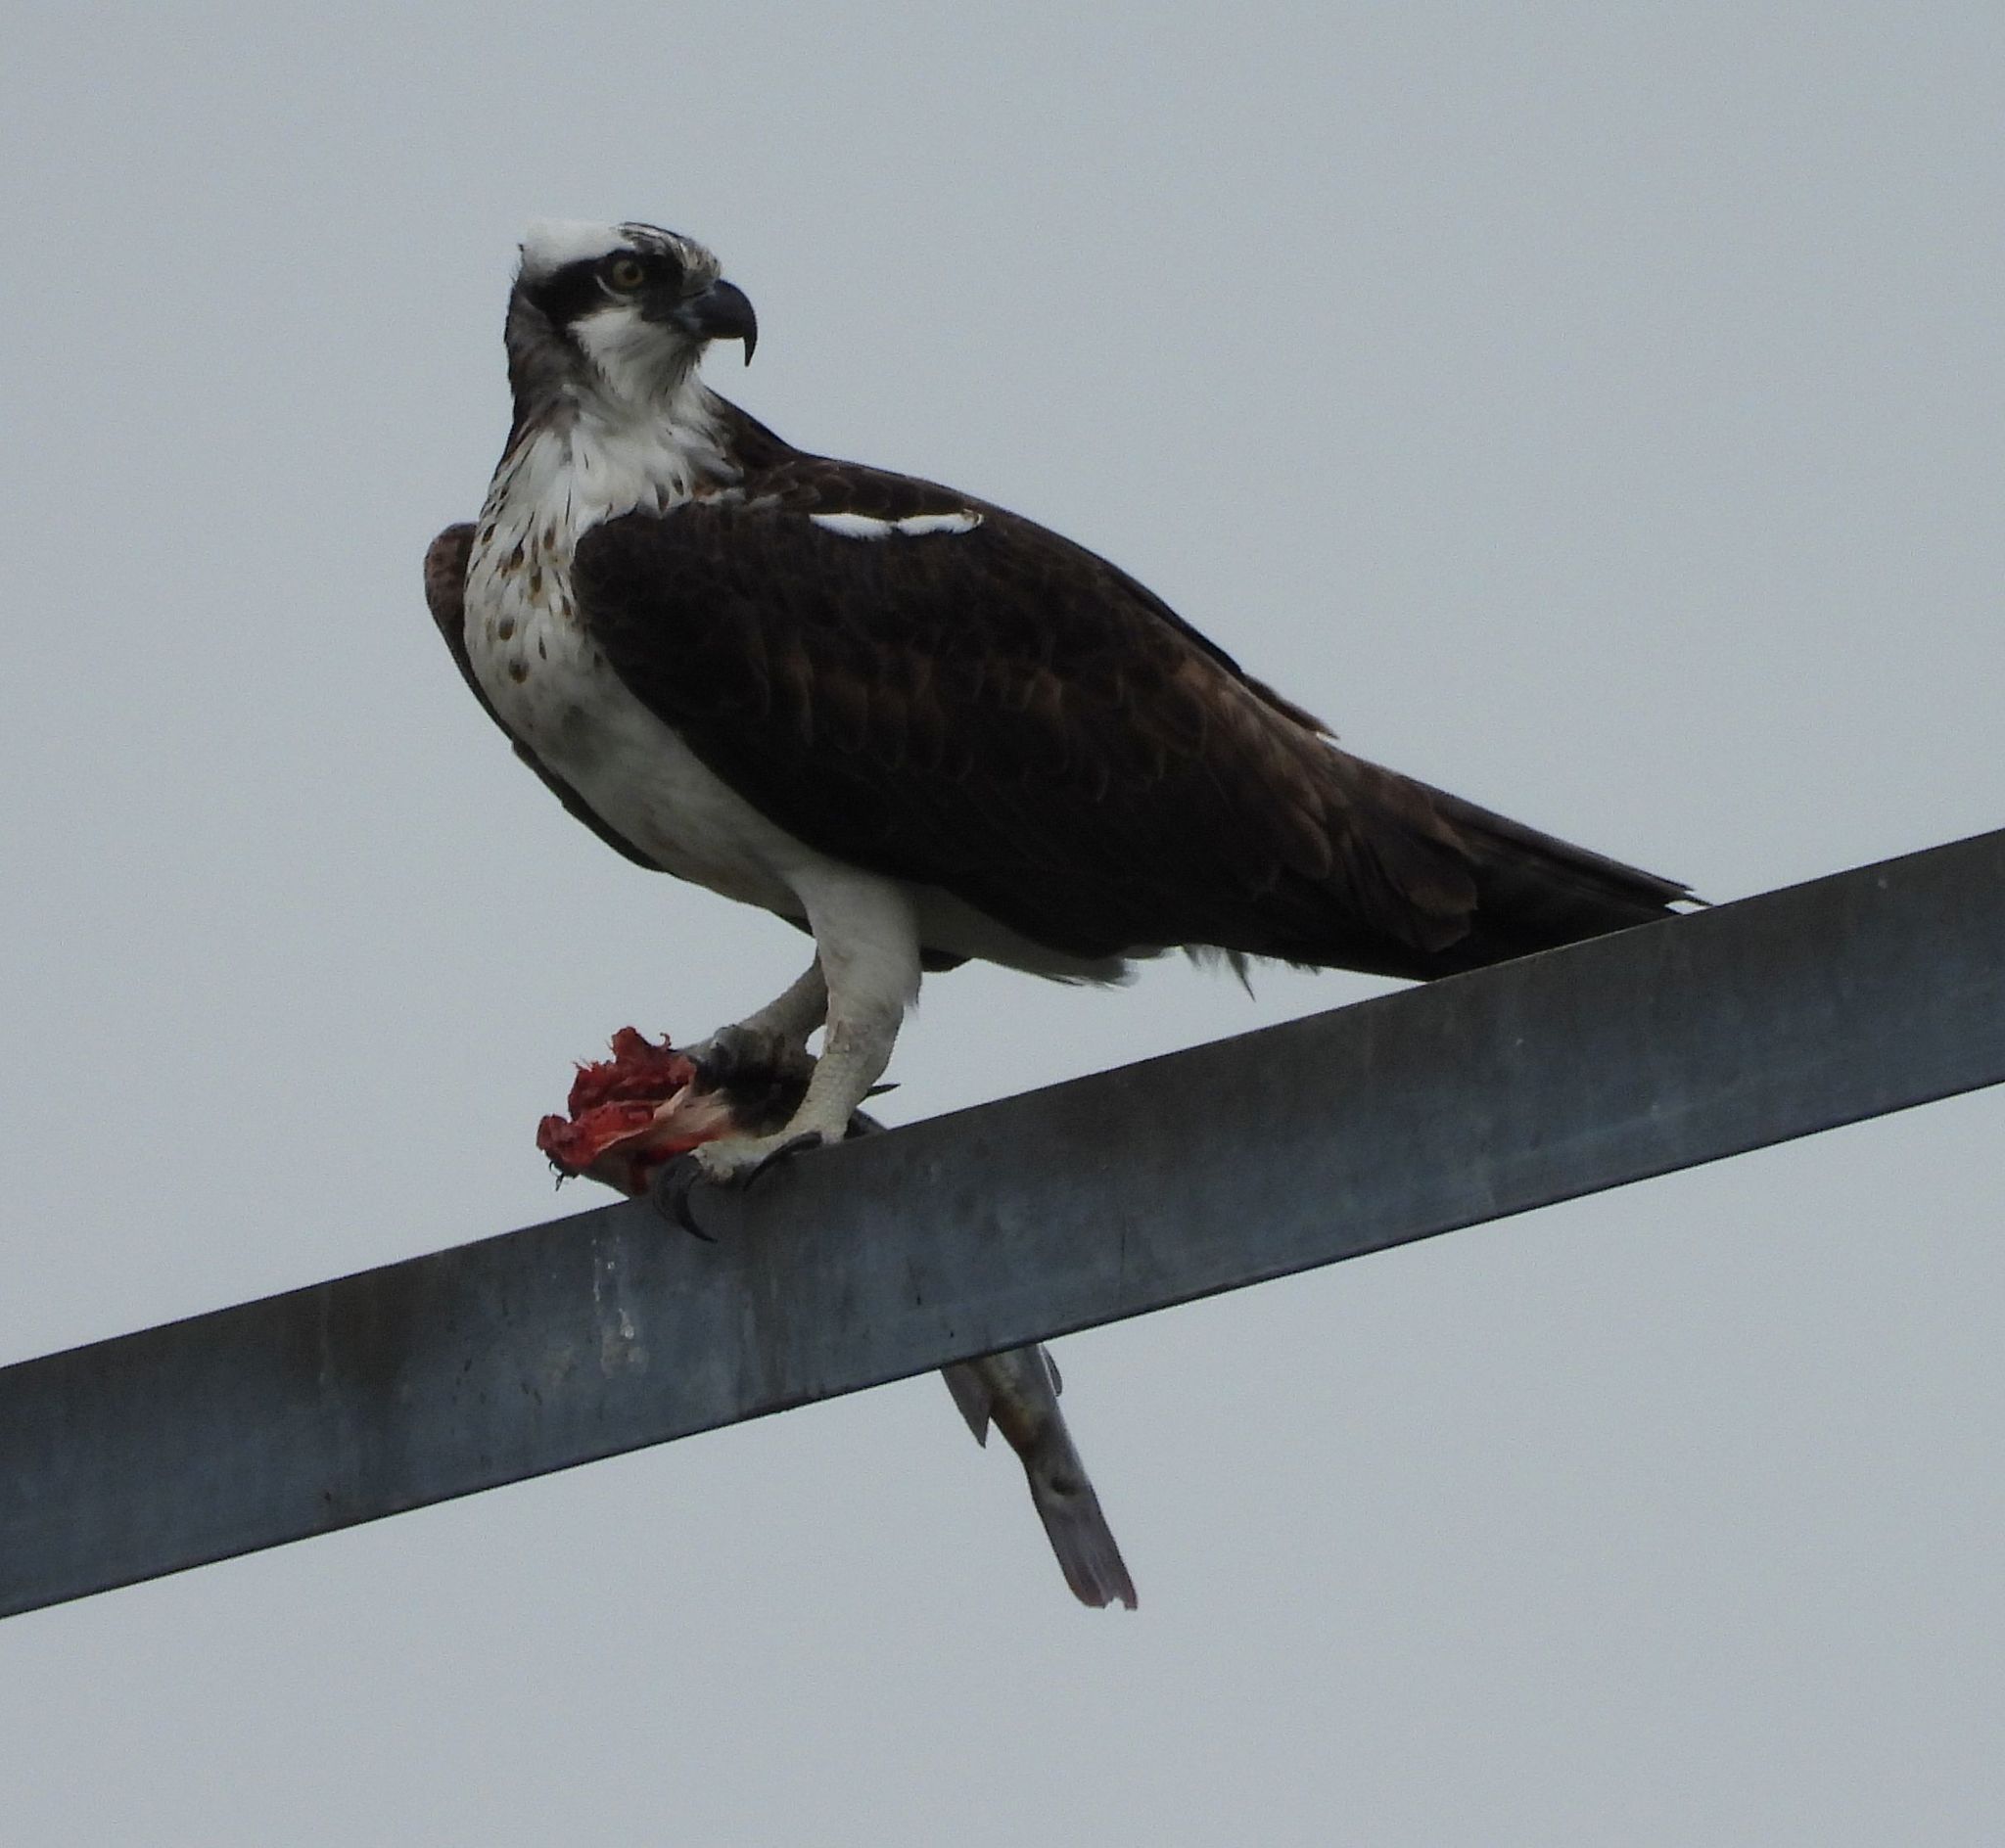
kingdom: Animalia
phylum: Chordata
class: Aves
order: Accipitriformes
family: Pandionidae
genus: Pandion
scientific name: Pandion haliaetus
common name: Osprey
